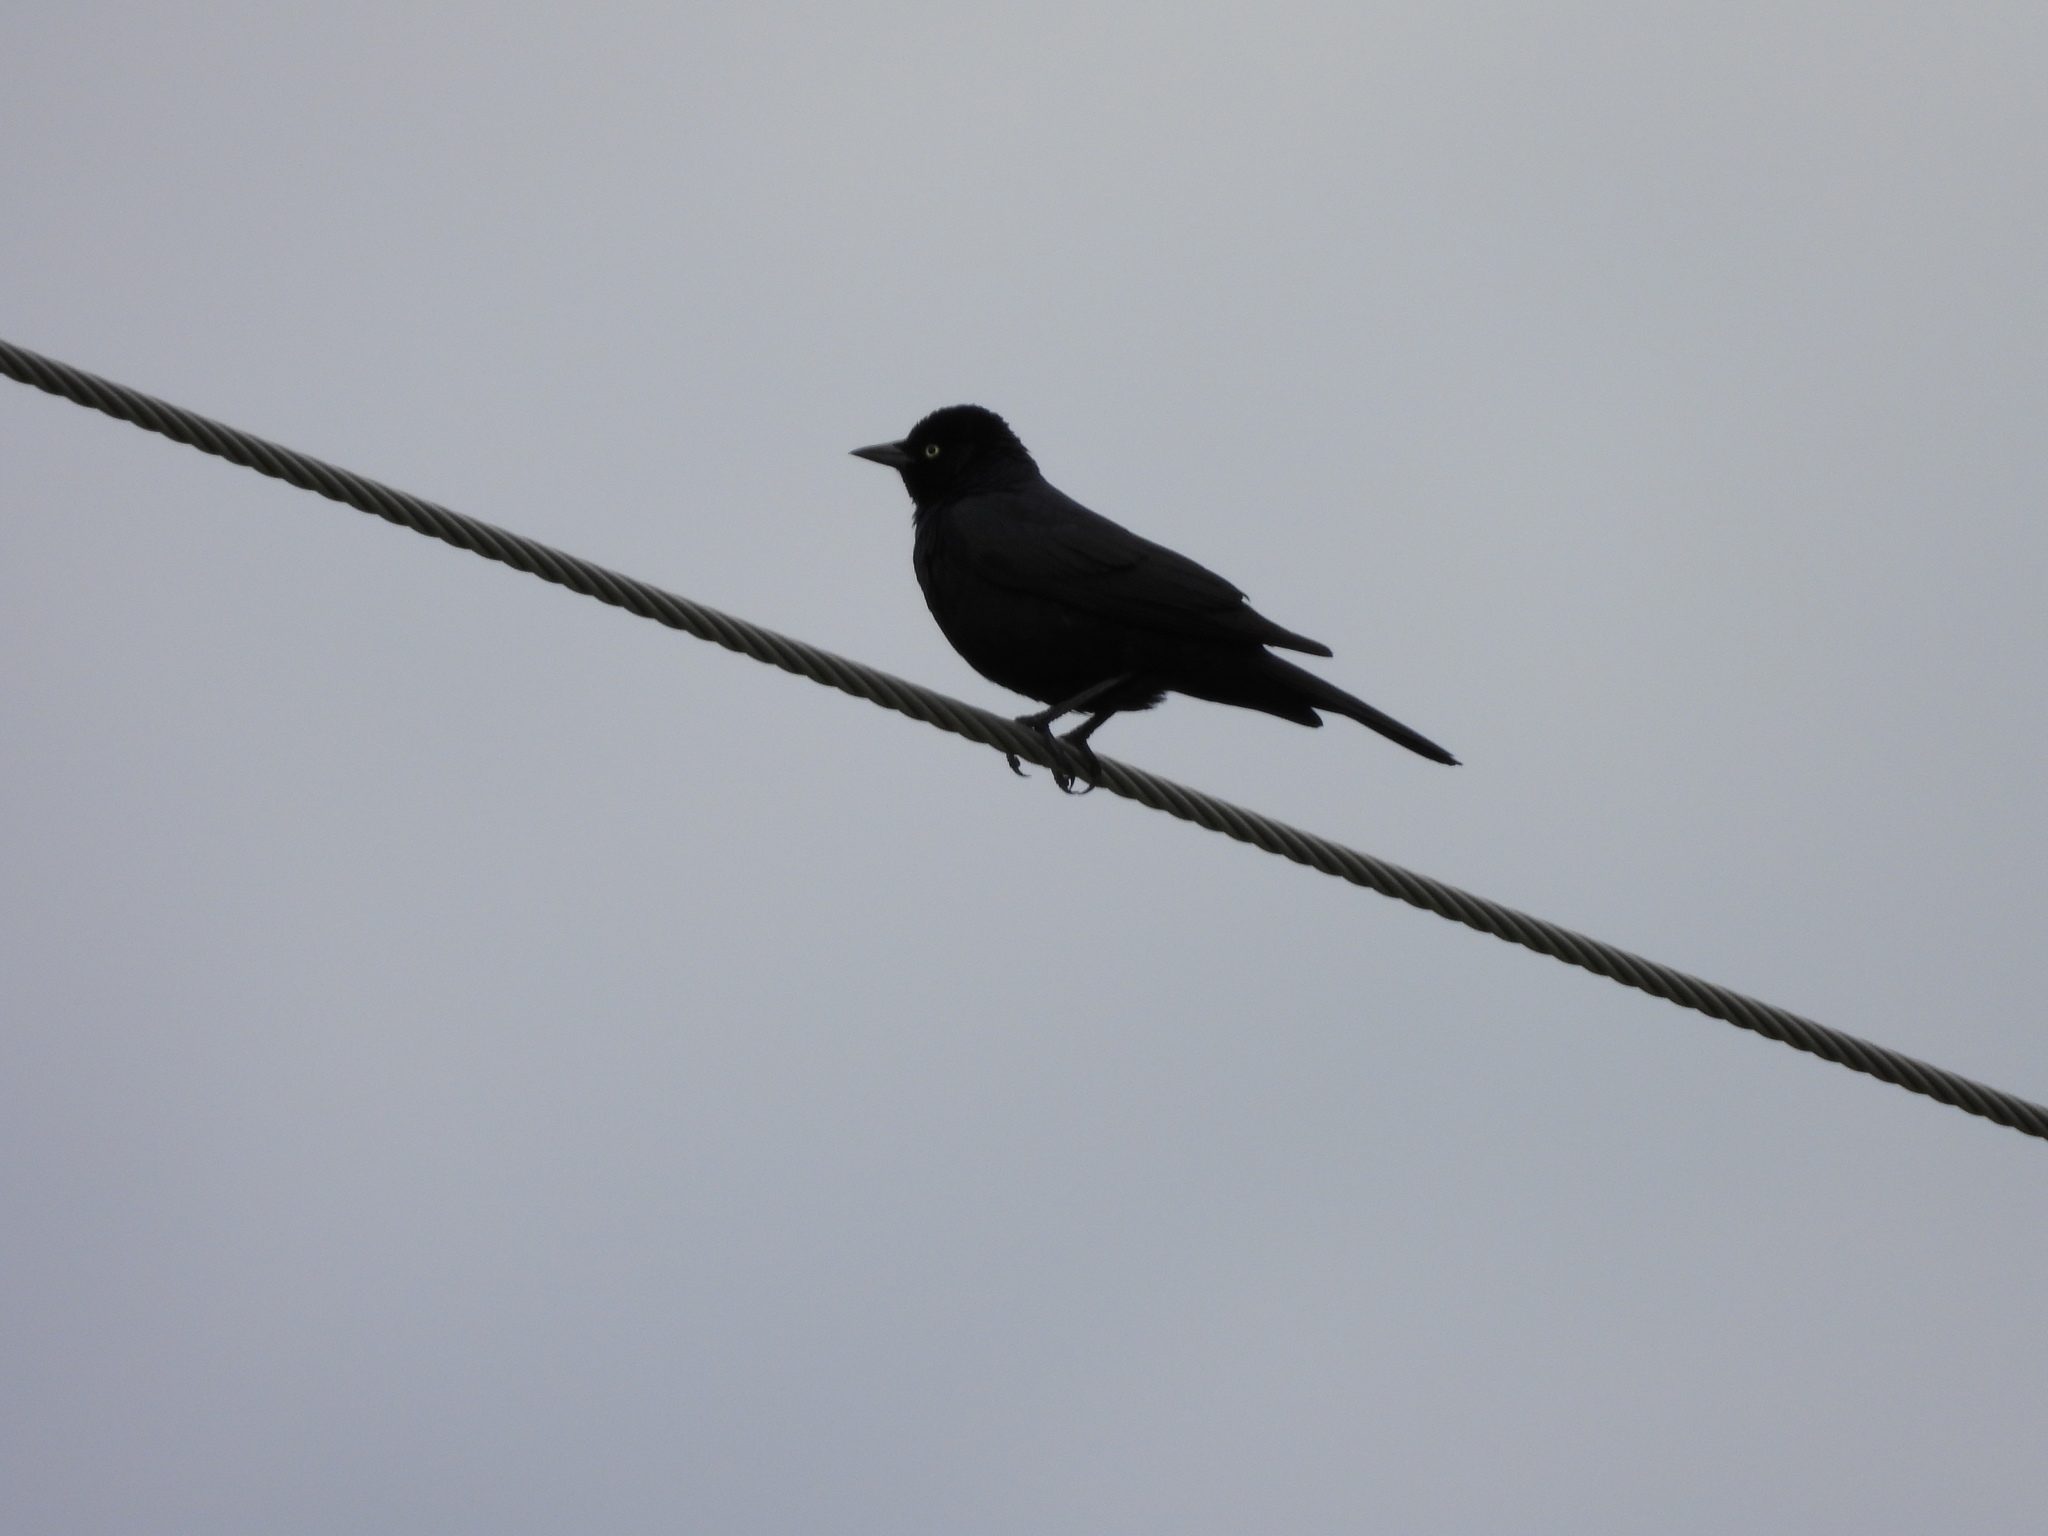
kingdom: Animalia
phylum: Chordata
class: Aves
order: Passeriformes
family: Icteridae
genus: Euphagus
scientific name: Euphagus cyanocephalus
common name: Brewer's blackbird
